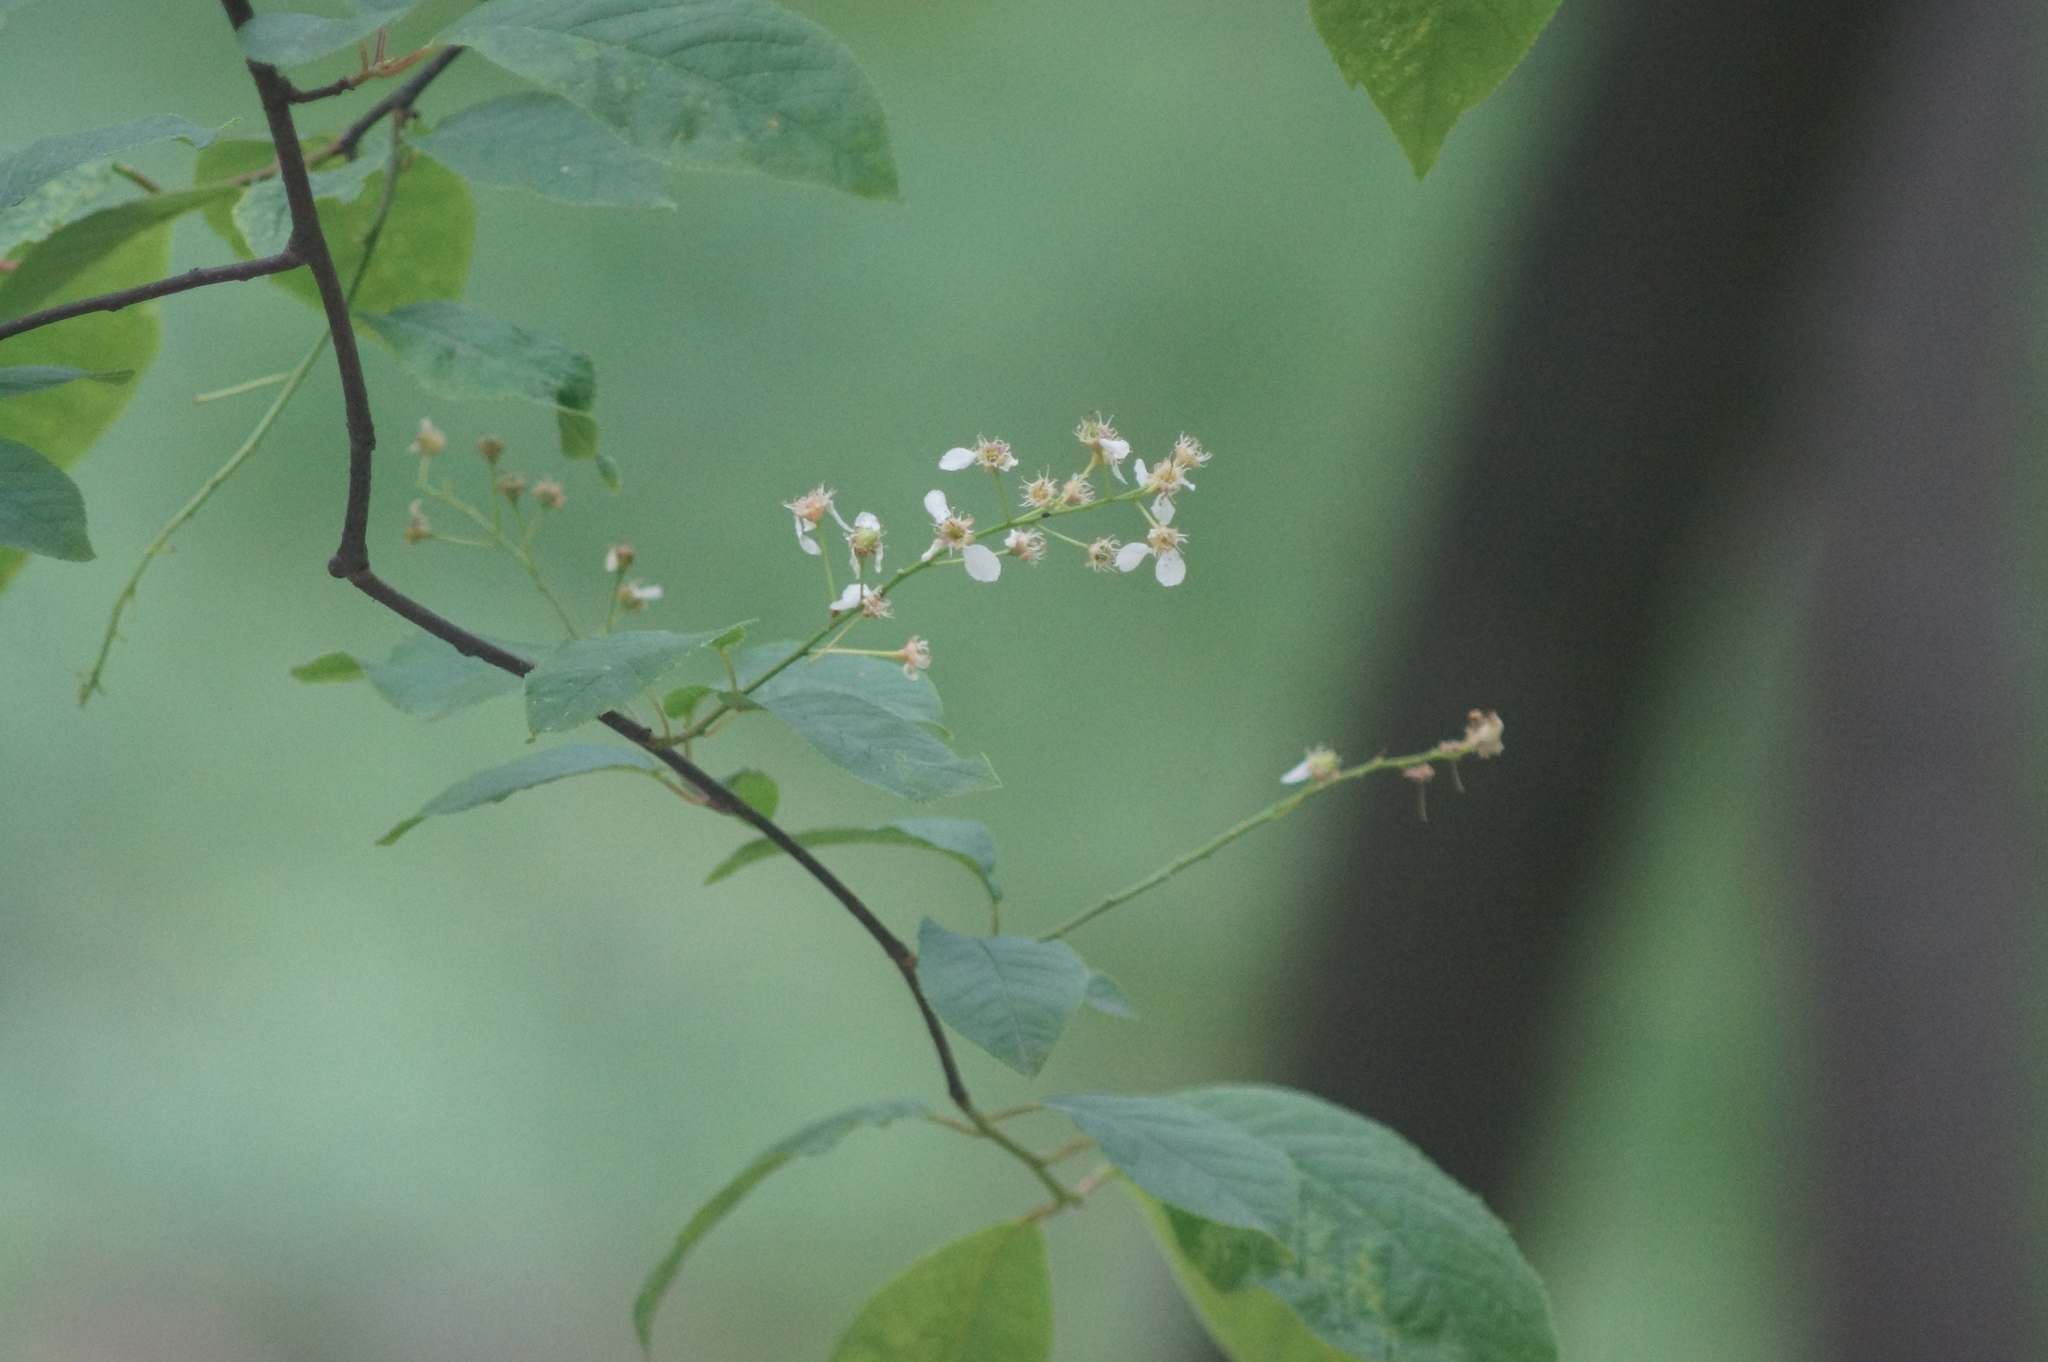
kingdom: Plantae
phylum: Tracheophyta
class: Magnoliopsida
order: Rosales
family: Rosaceae
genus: Prunus
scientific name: Prunus padus
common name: Bird cherry
